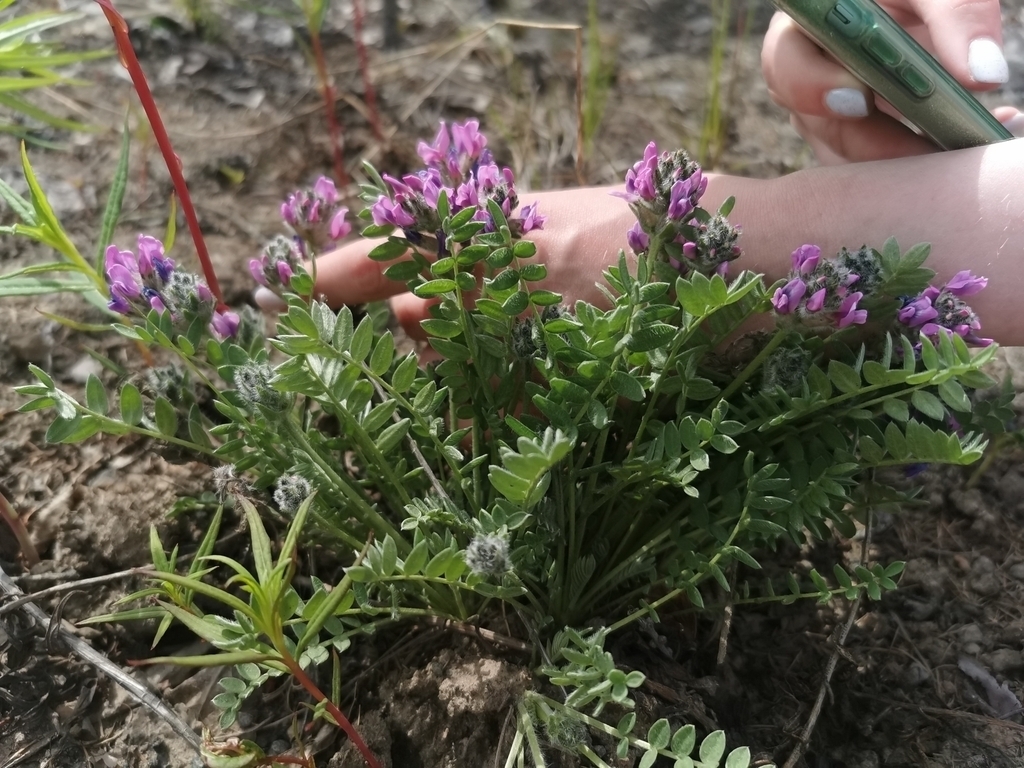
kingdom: Plantae
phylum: Tracheophyta
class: Magnoliopsida
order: Fabales
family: Fabaceae
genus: Oxytropis
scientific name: Oxytropis adamsiana
